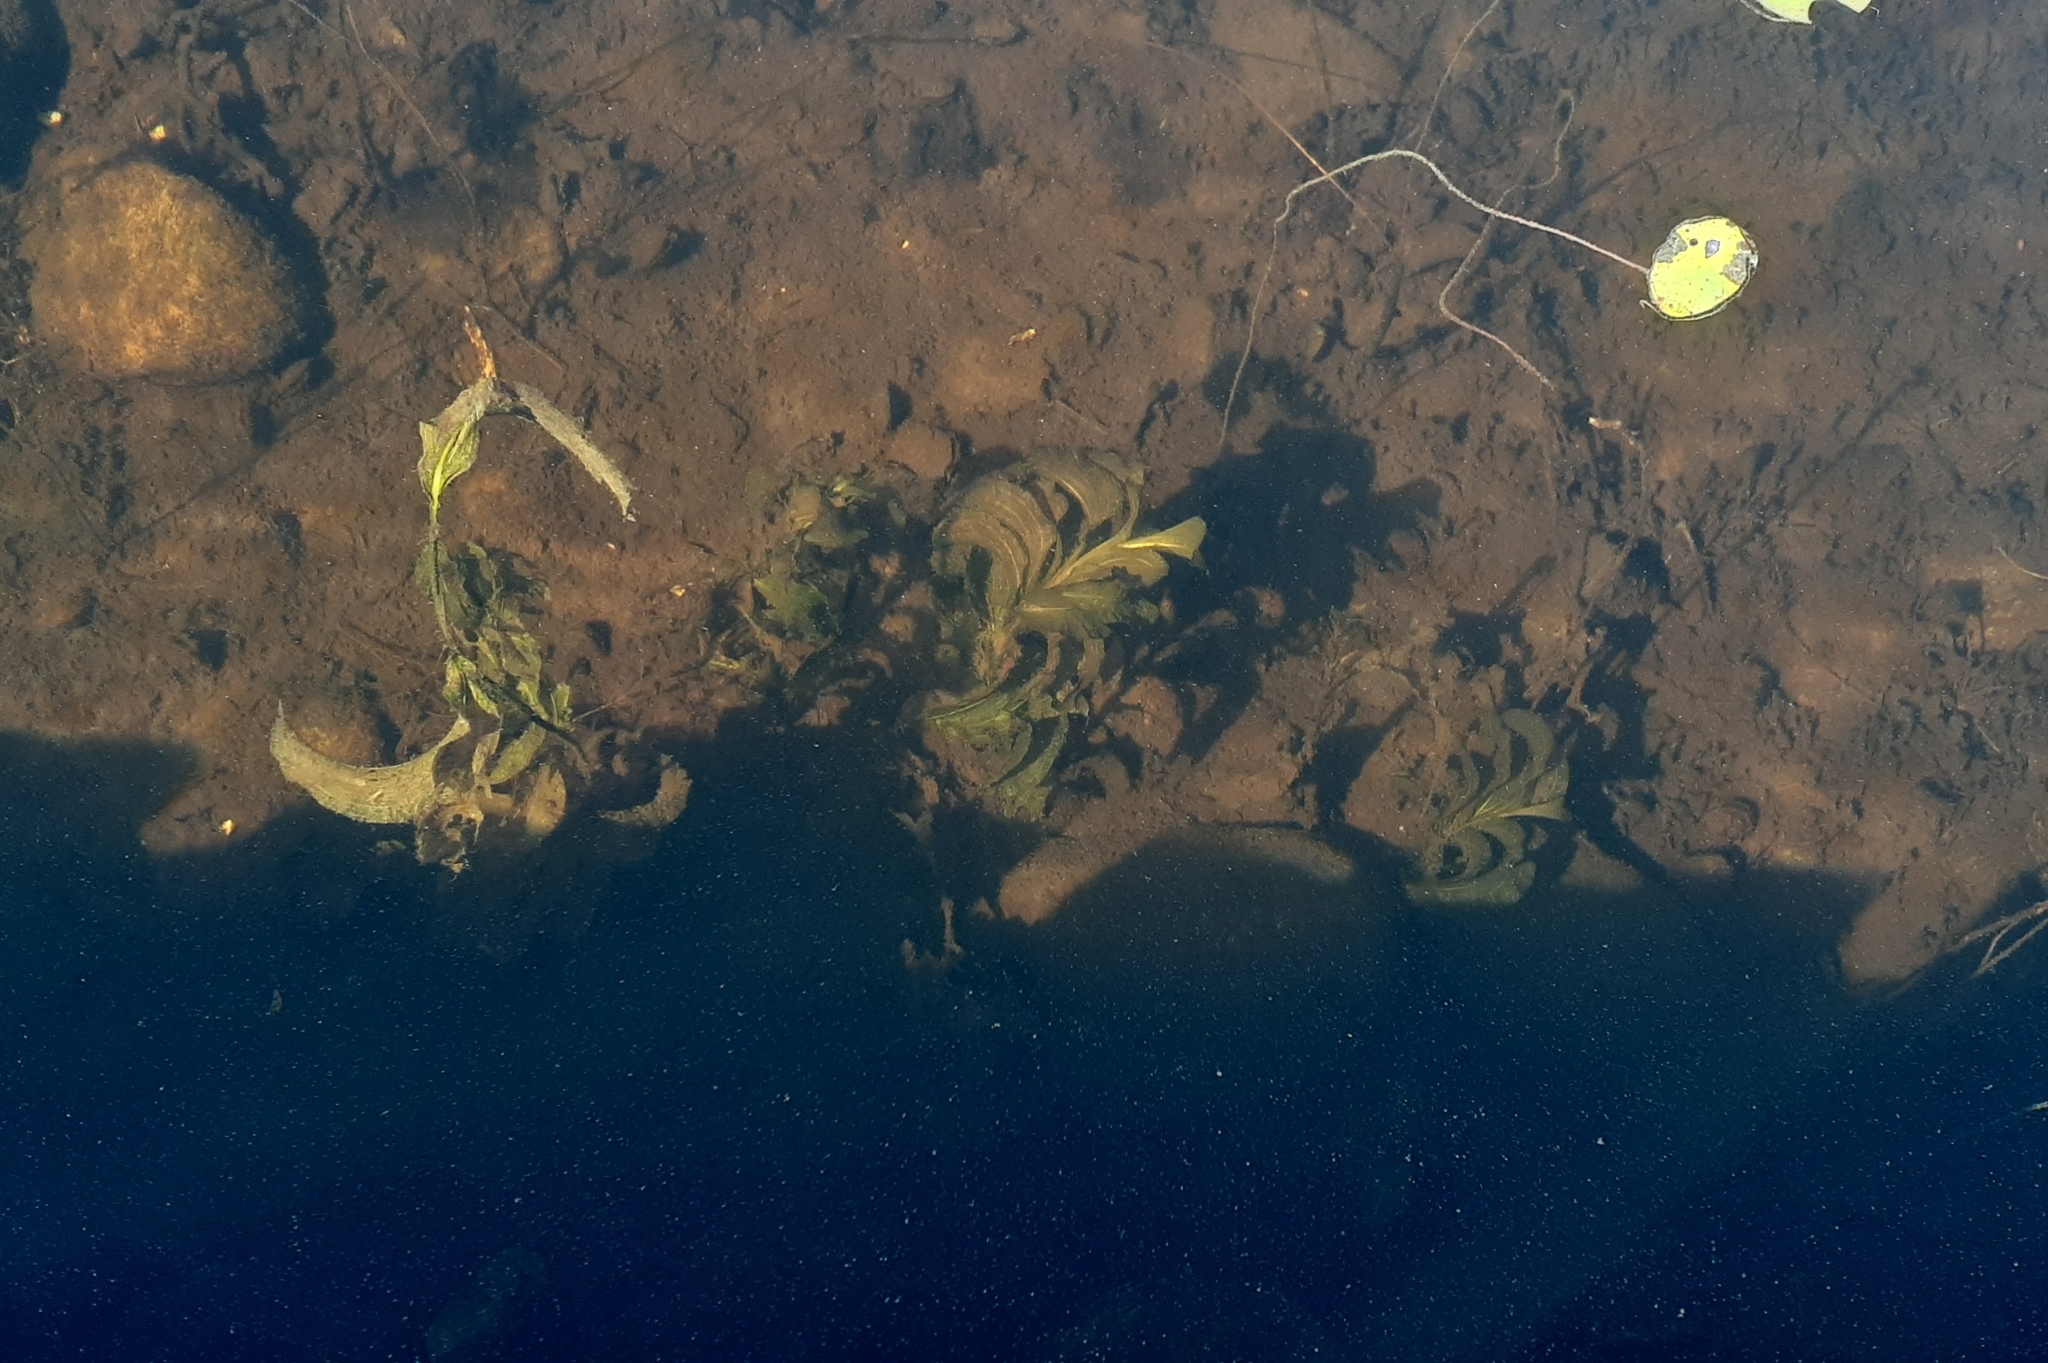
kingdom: Plantae
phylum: Tracheophyta
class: Liliopsida
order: Alismatales
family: Potamogetonaceae
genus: Potamogeton
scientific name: Potamogeton amplifolius
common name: Broad-leaved pondweed
